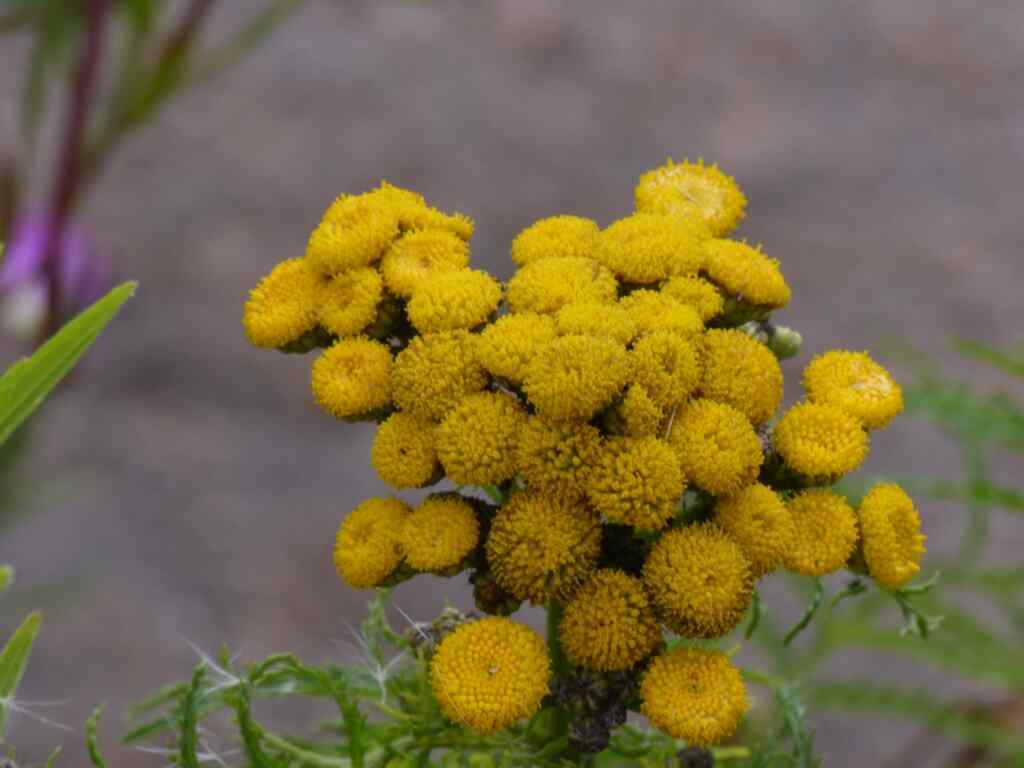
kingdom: Plantae
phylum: Tracheophyta
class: Magnoliopsida
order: Asterales
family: Asteraceae
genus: Tanacetum
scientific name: Tanacetum vulgare
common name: Common tansy
